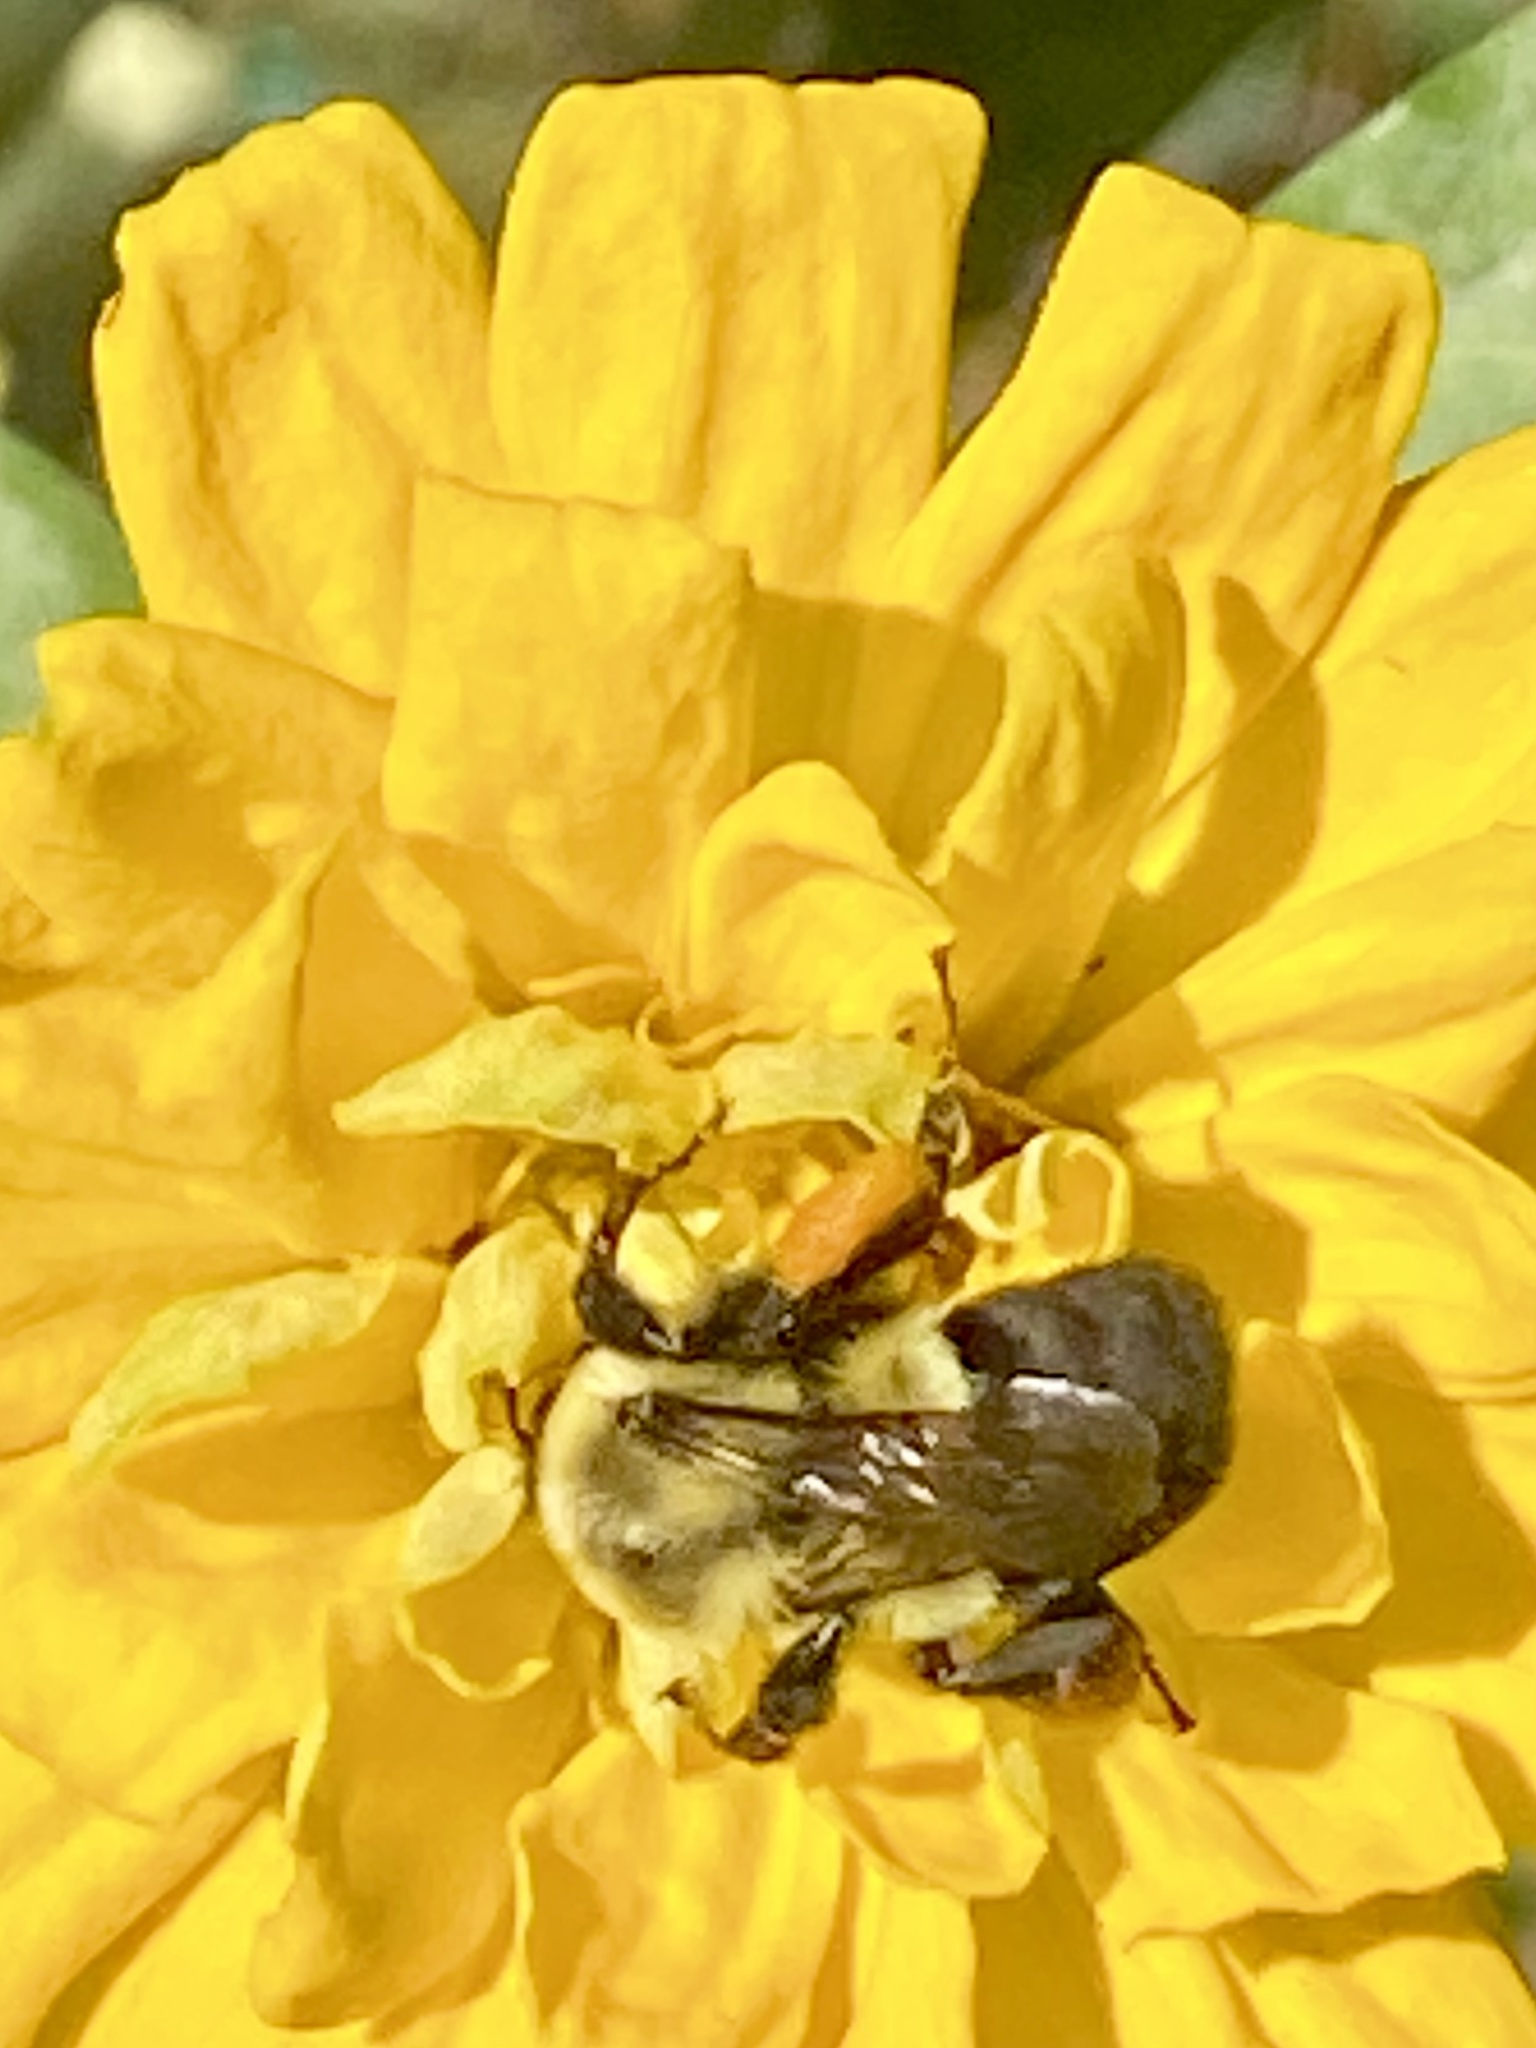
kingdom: Animalia
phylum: Arthropoda
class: Insecta
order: Hymenoptera
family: Apidae
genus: Bombus
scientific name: Bombus impatiens
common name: Common eastern bumble bee
